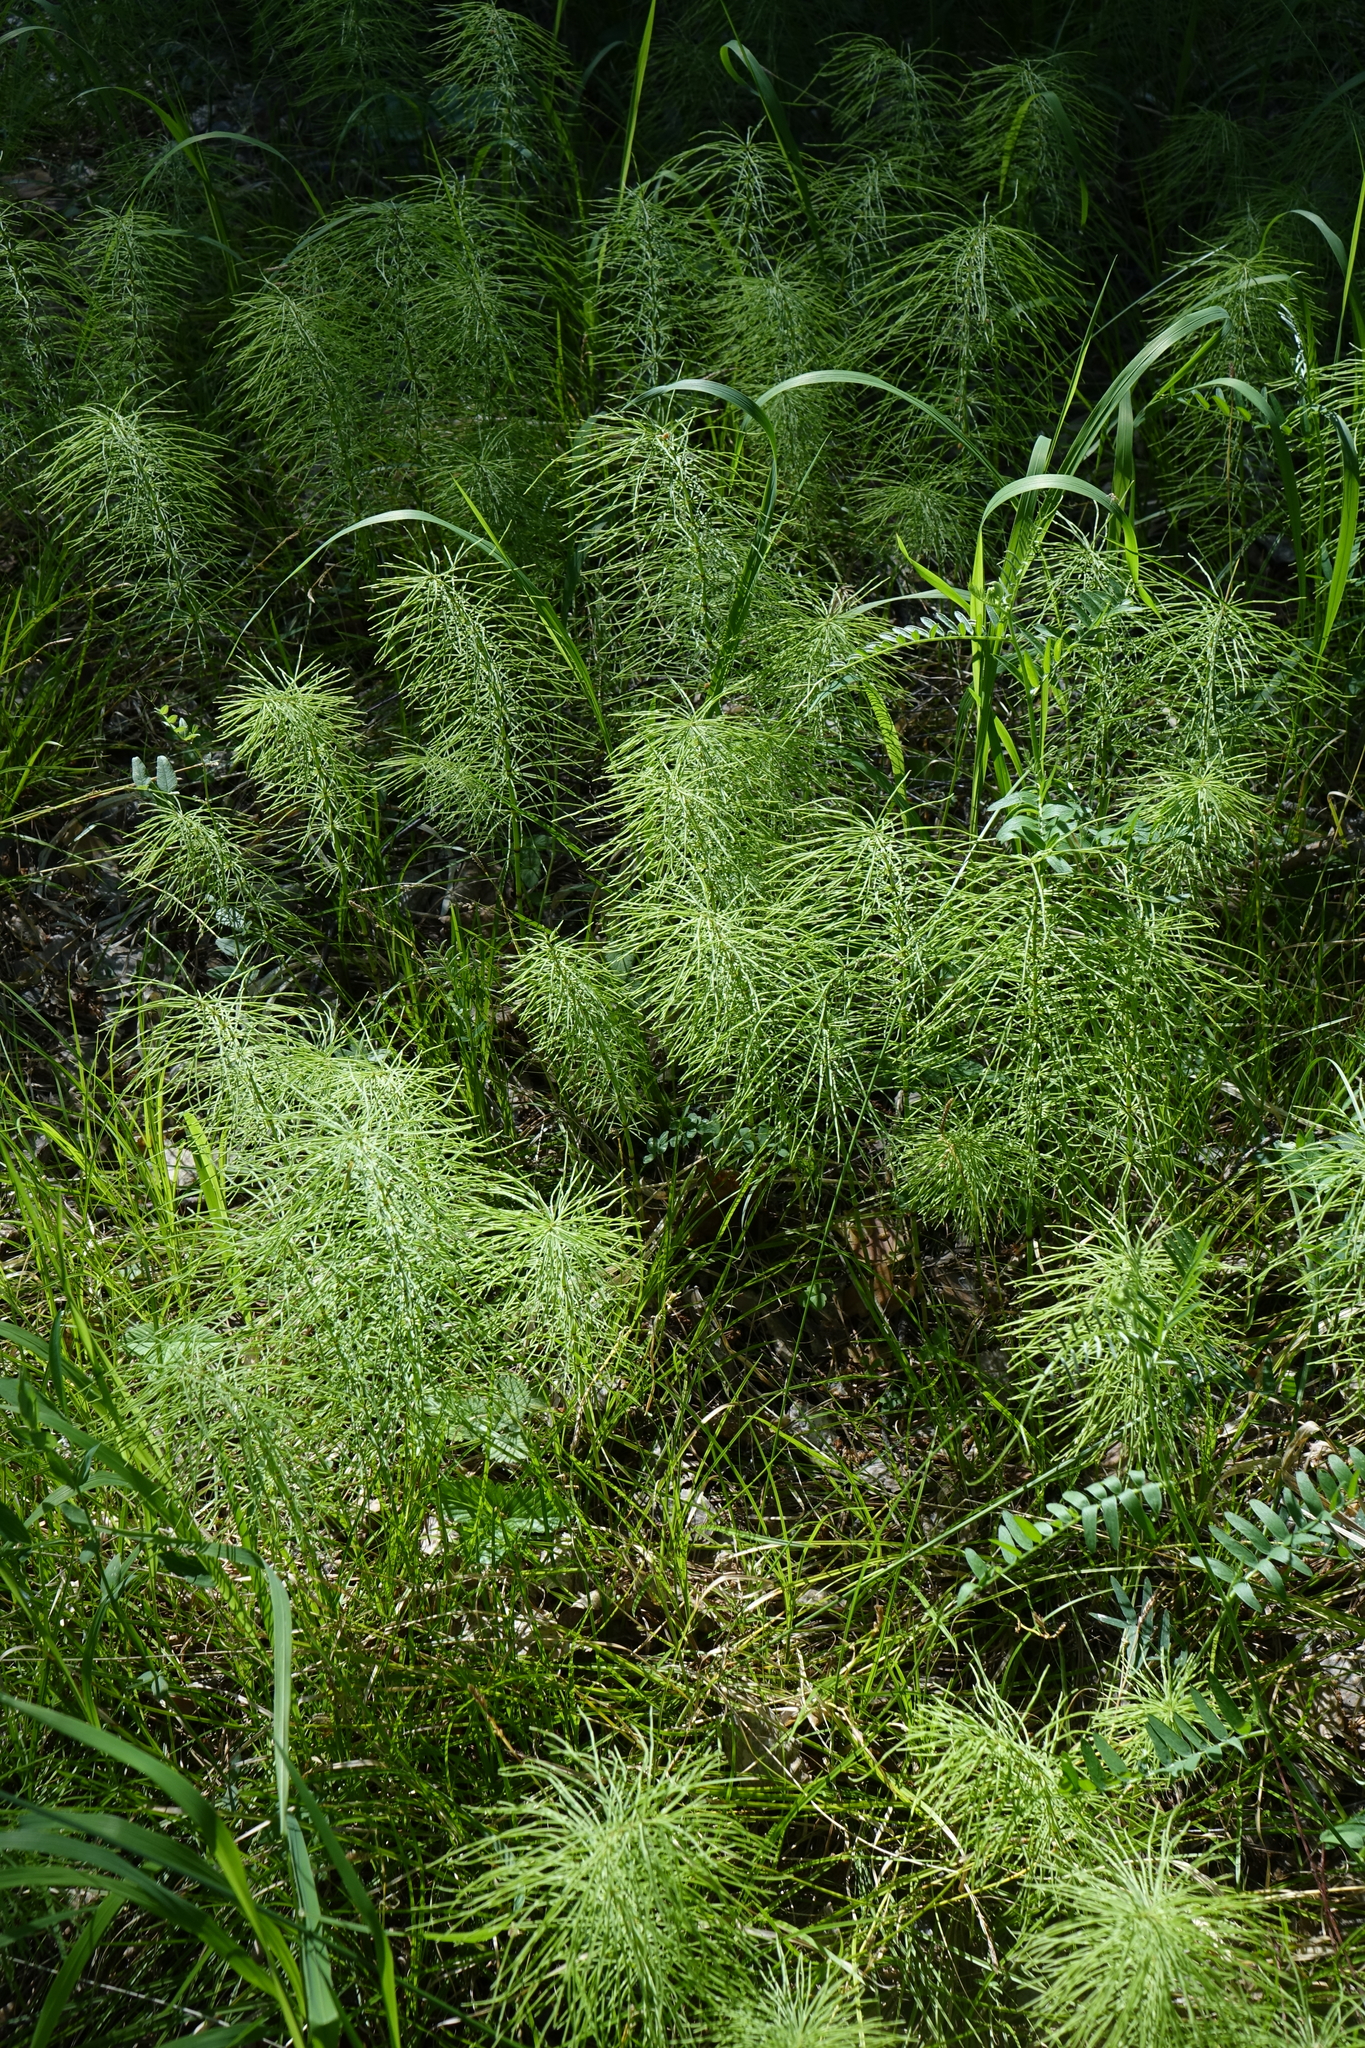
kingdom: Plantae
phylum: Tracheophyta
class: Polypodiopsida
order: Equisetales
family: Equisetaceae
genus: Equisetum
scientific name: Equisetum pratense
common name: Meadow horsetail
